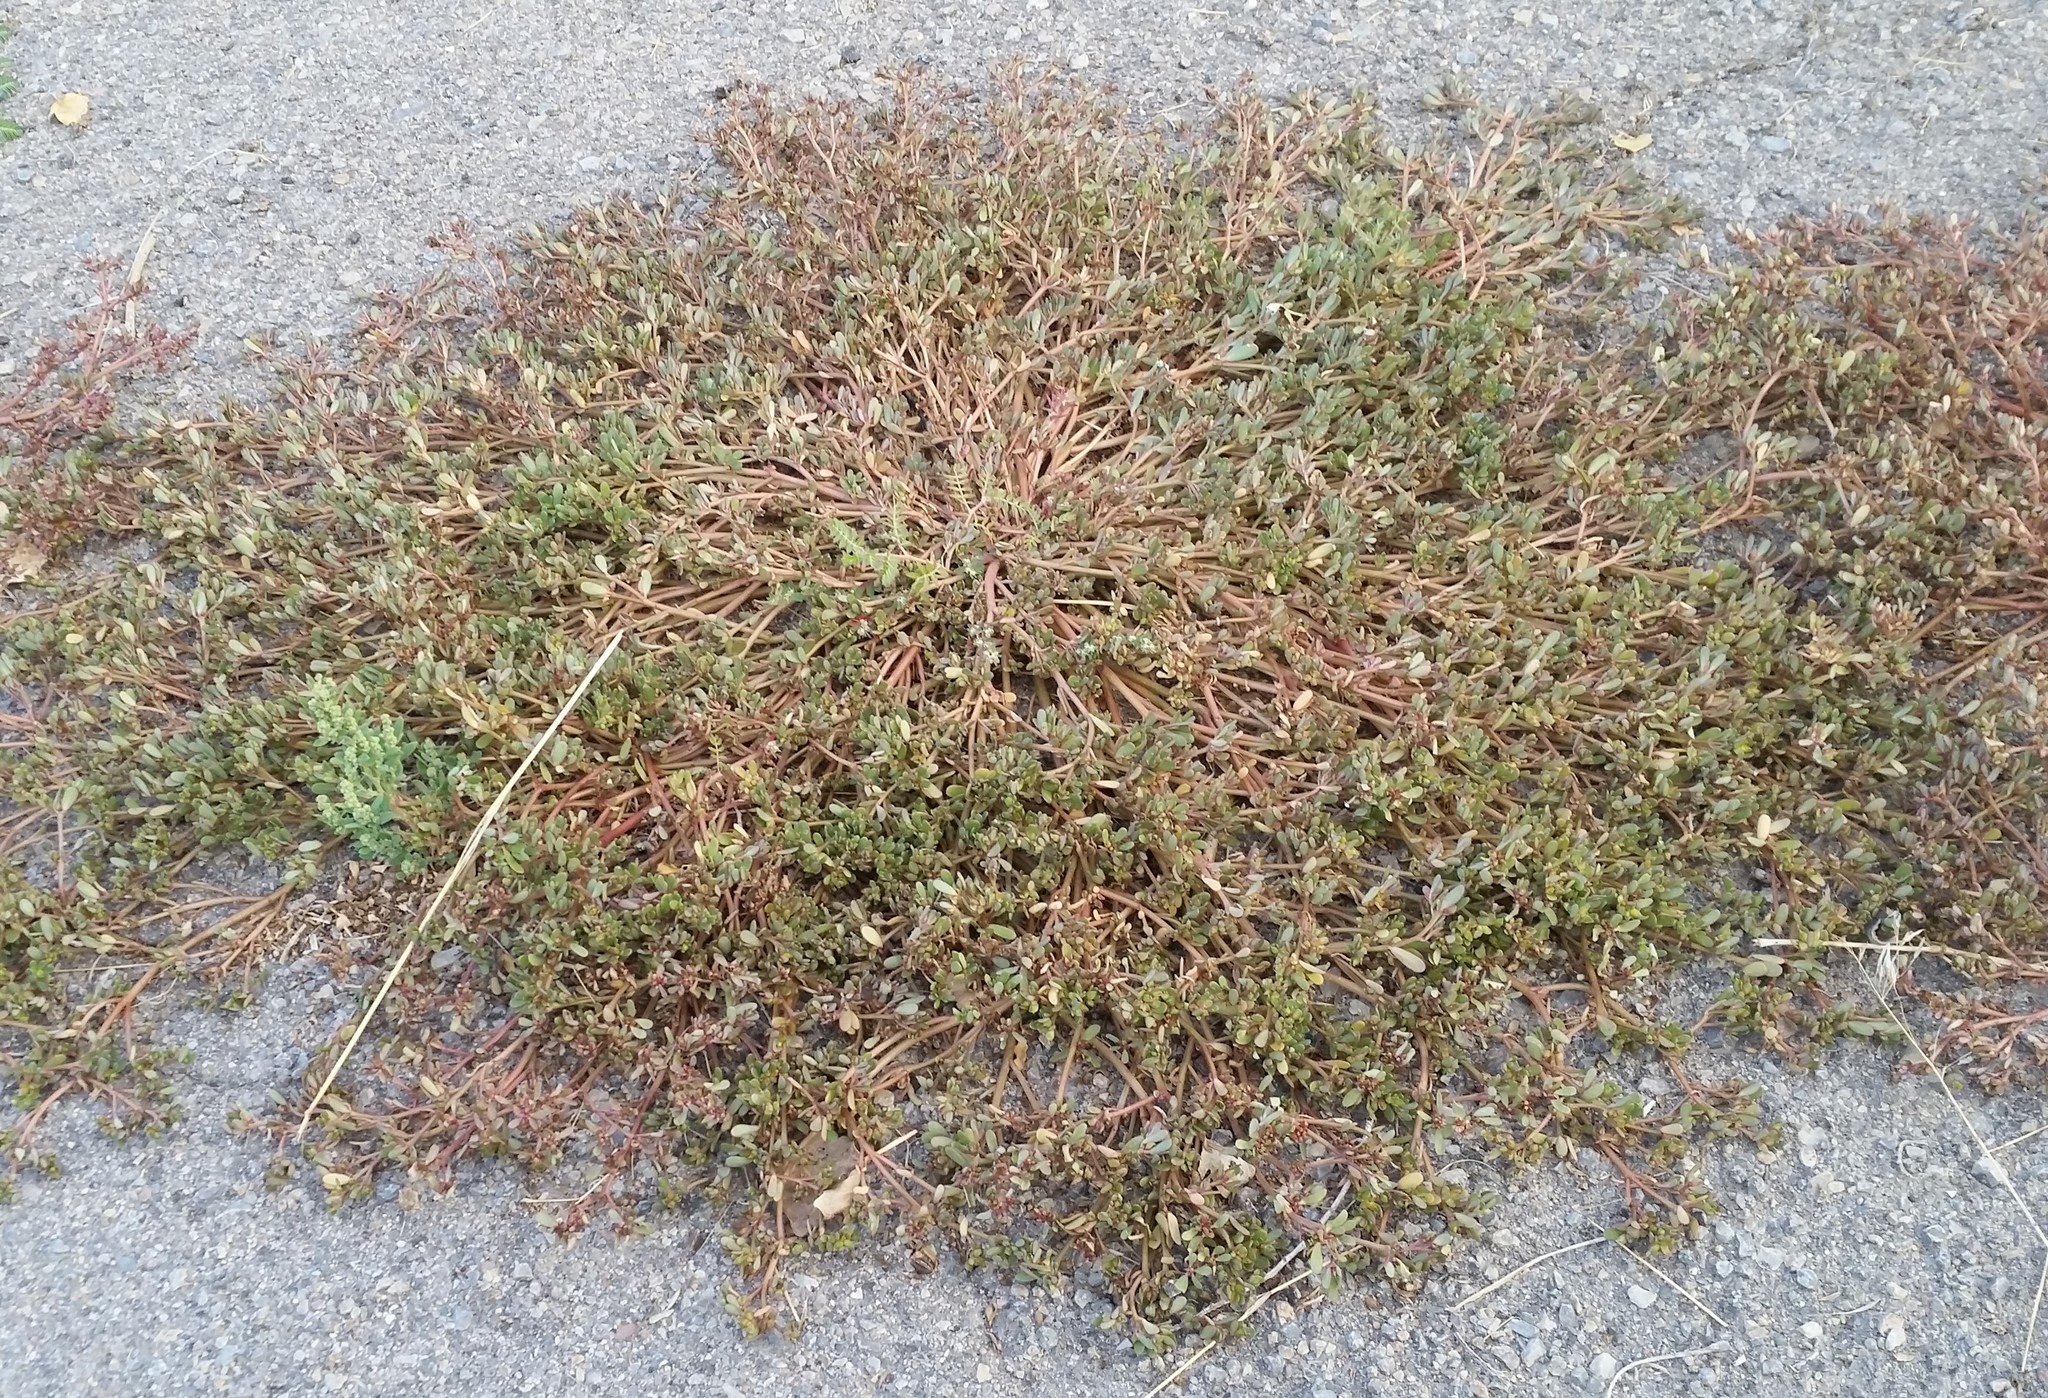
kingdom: Plantae
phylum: Tracheophyta
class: Magnoliopsida
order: Caryophyllales
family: Portulacaceae
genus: Portulaca
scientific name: Portulaca oleracea
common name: Common purslane
